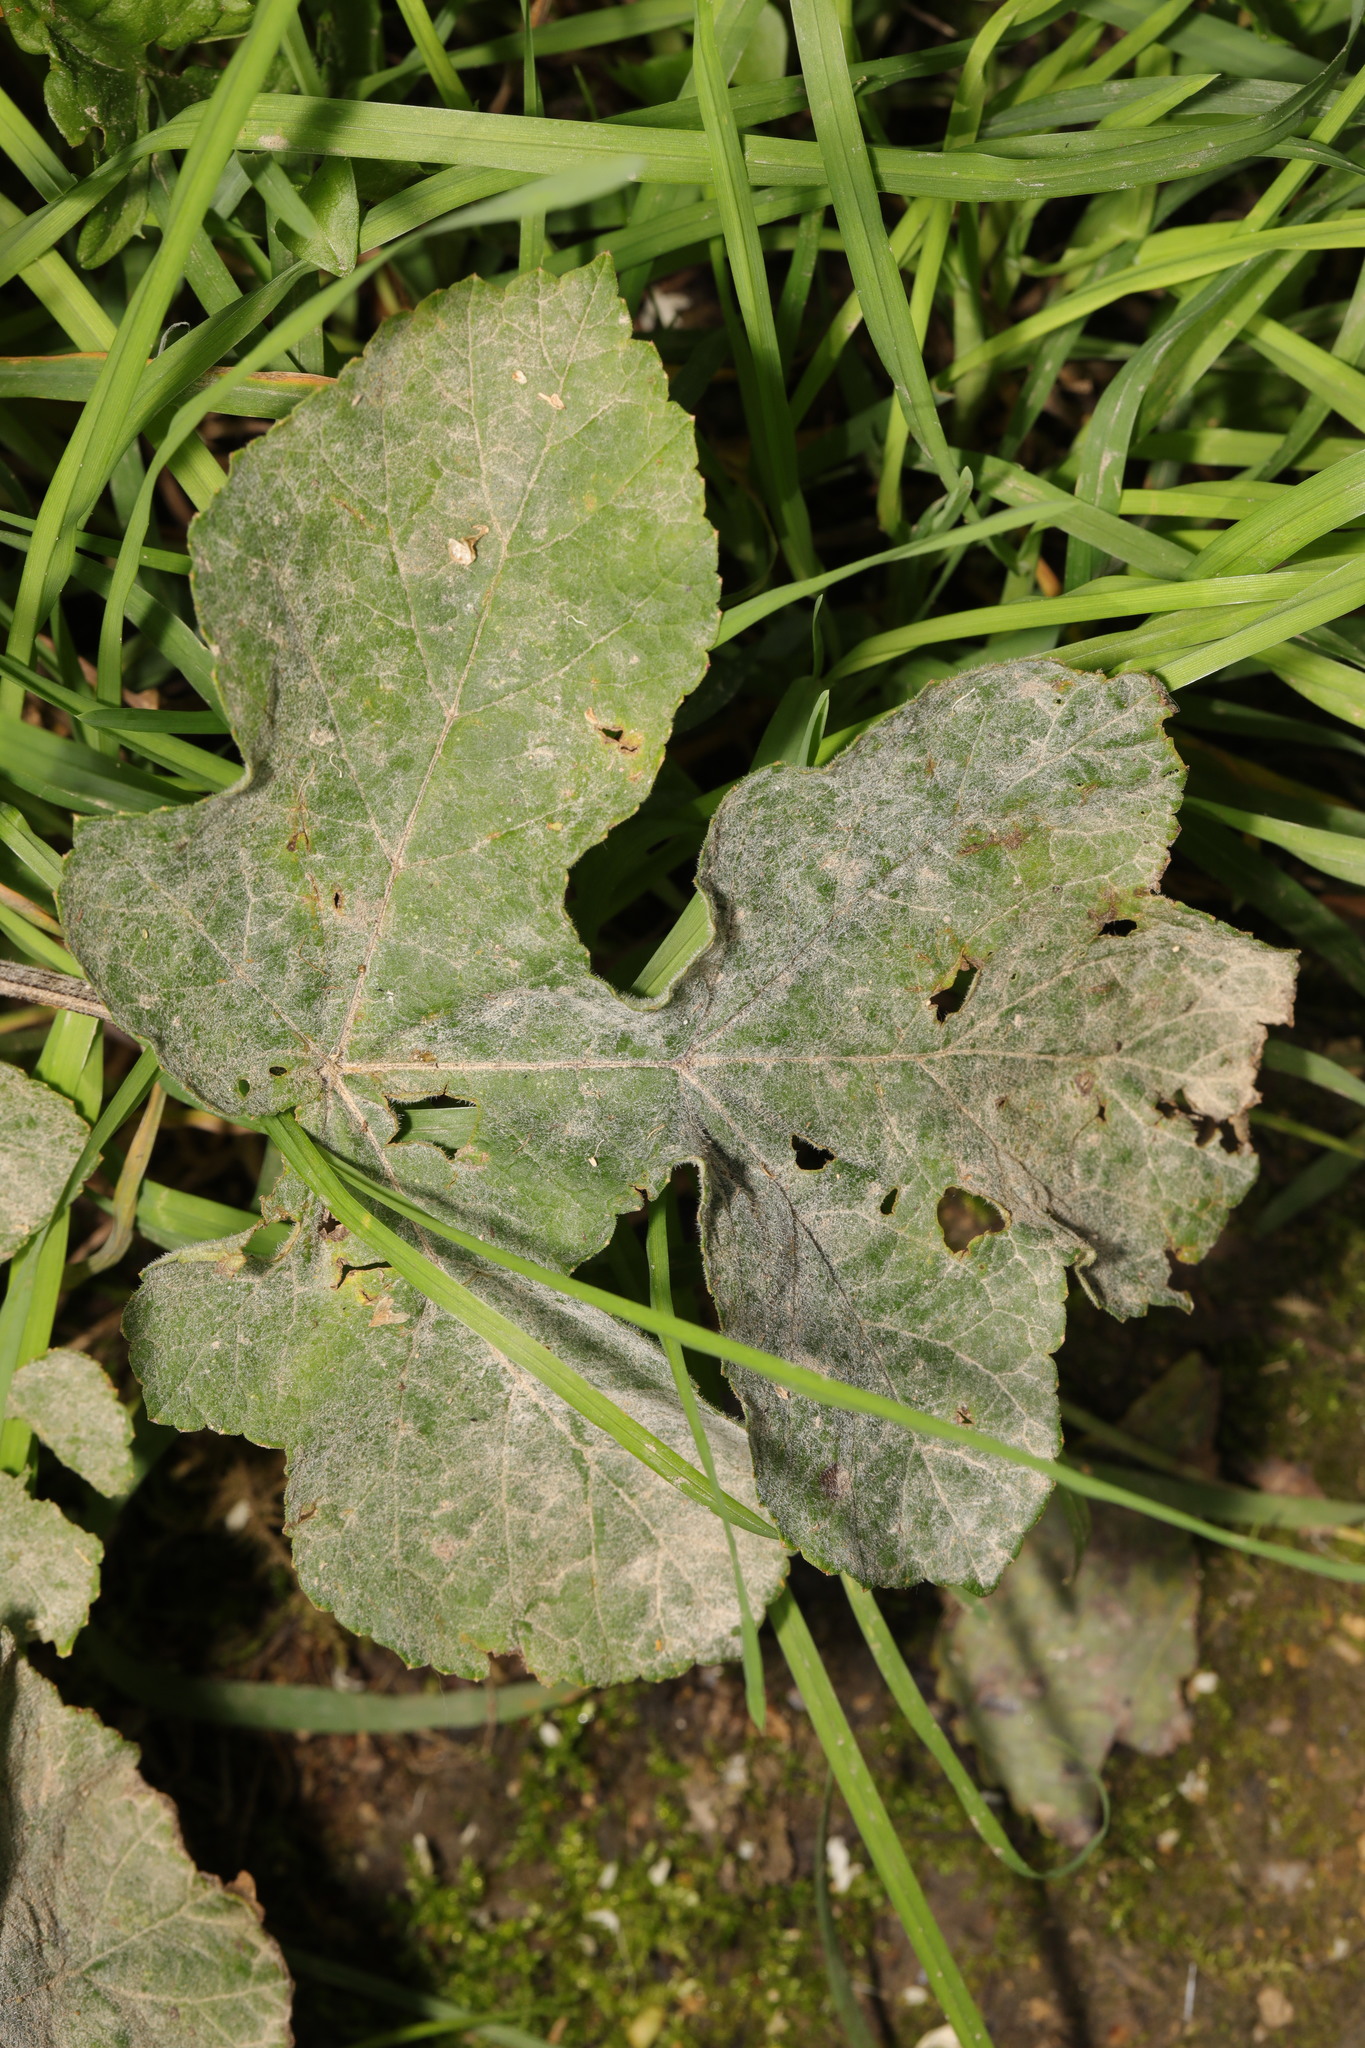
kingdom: Fungi
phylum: Ascomycota
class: Leotiomycetes
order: Helotiales
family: Erysiphaceae
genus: Erysiphe
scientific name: Erysiphe heraclei
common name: Umbellifer mildew
